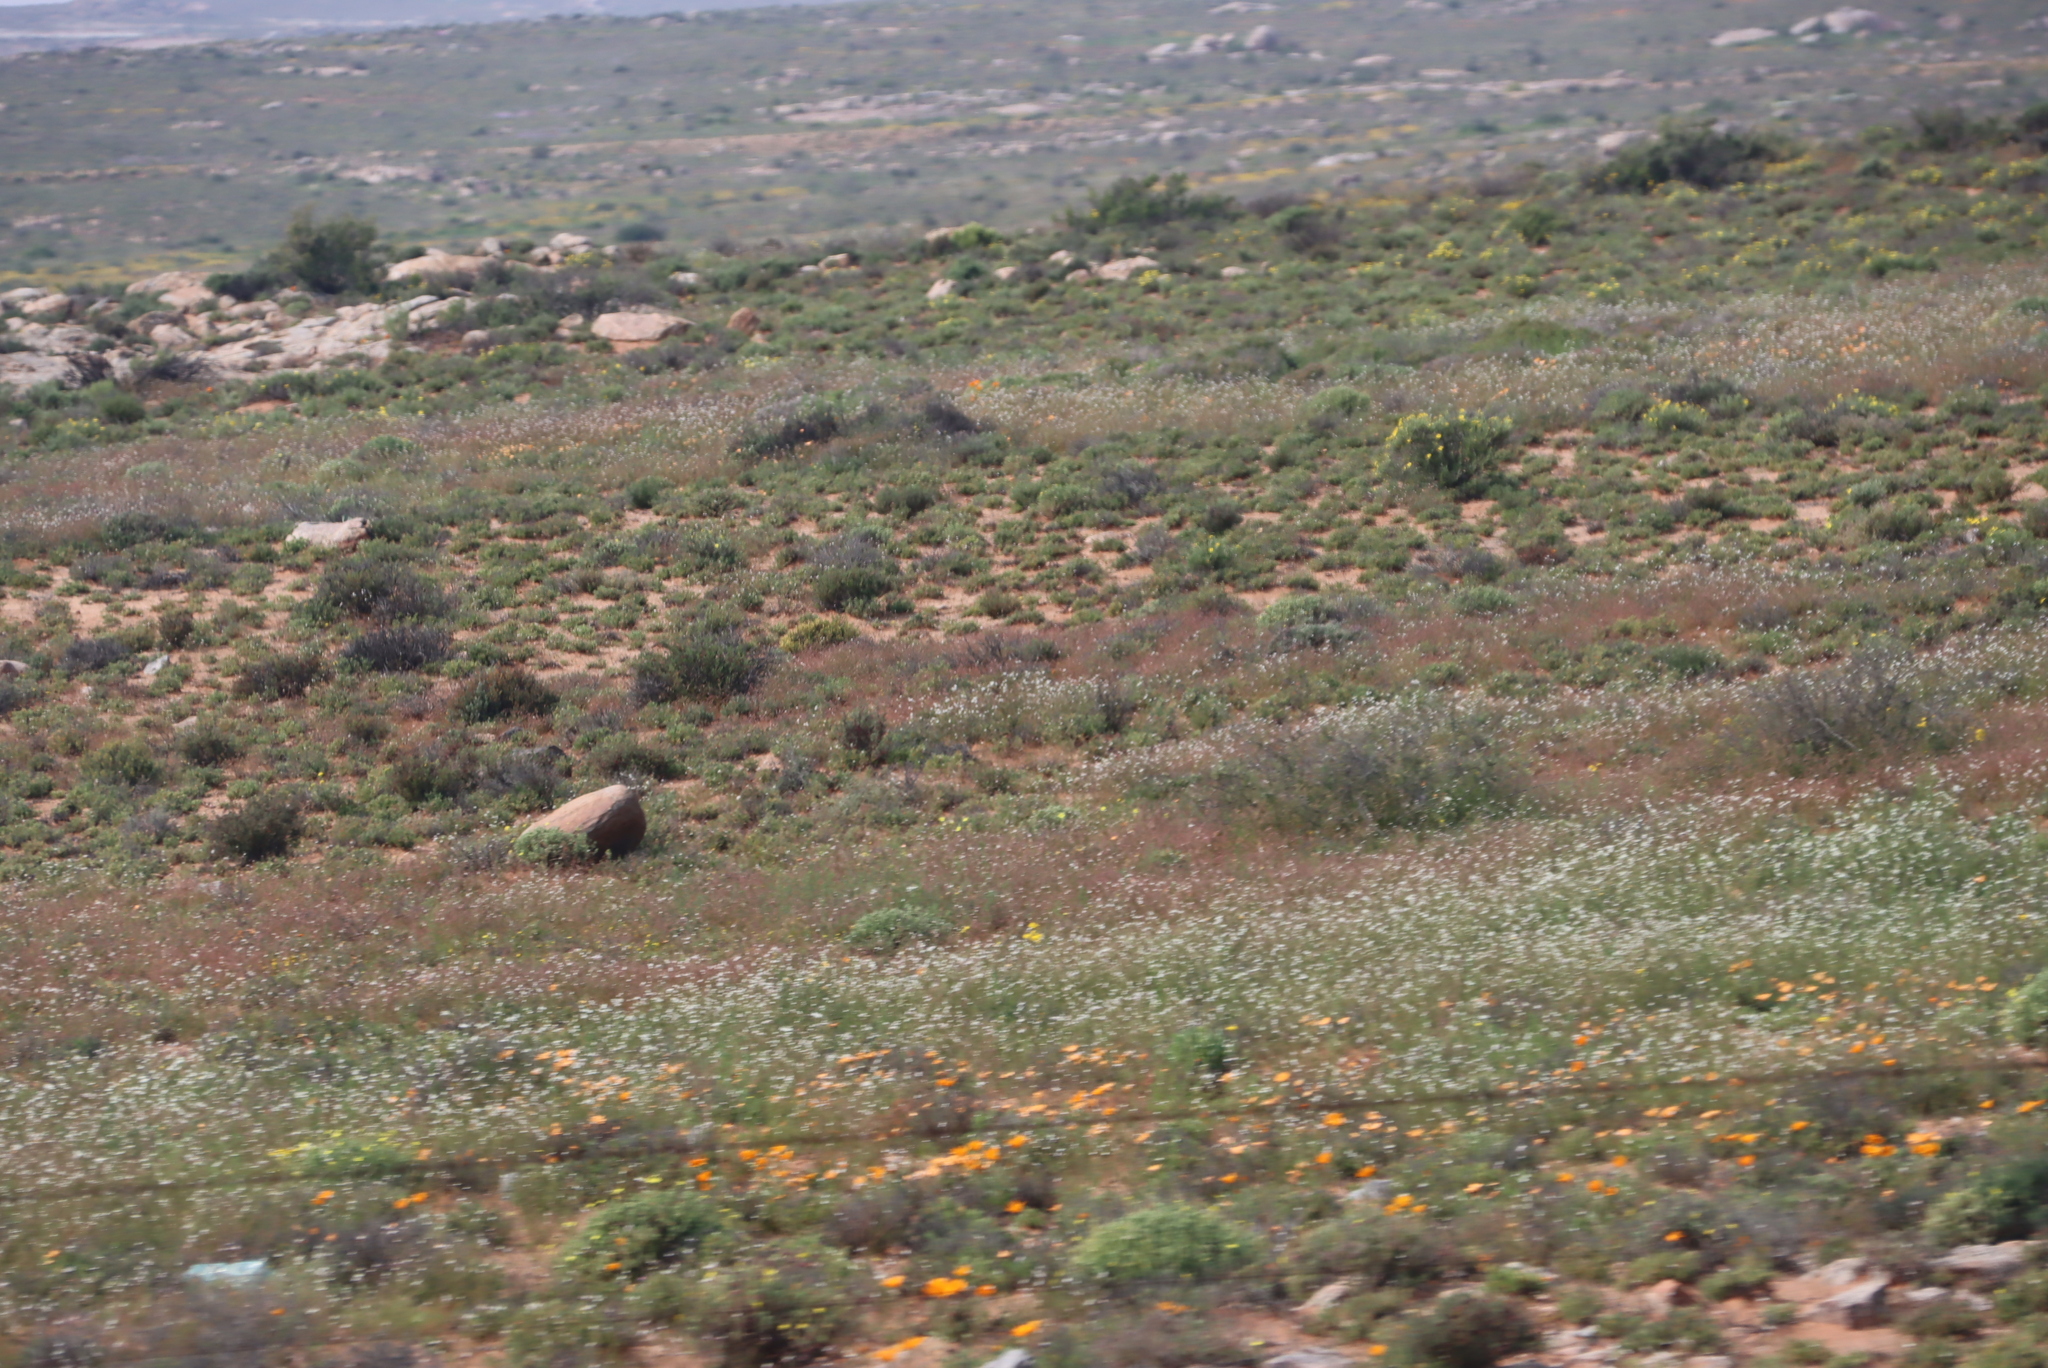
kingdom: Plantae
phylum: Tracheophyta
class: Magnoliopsida
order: Brassicales
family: Brassicaceae
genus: Heliophila
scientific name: Heliophila variabilis
